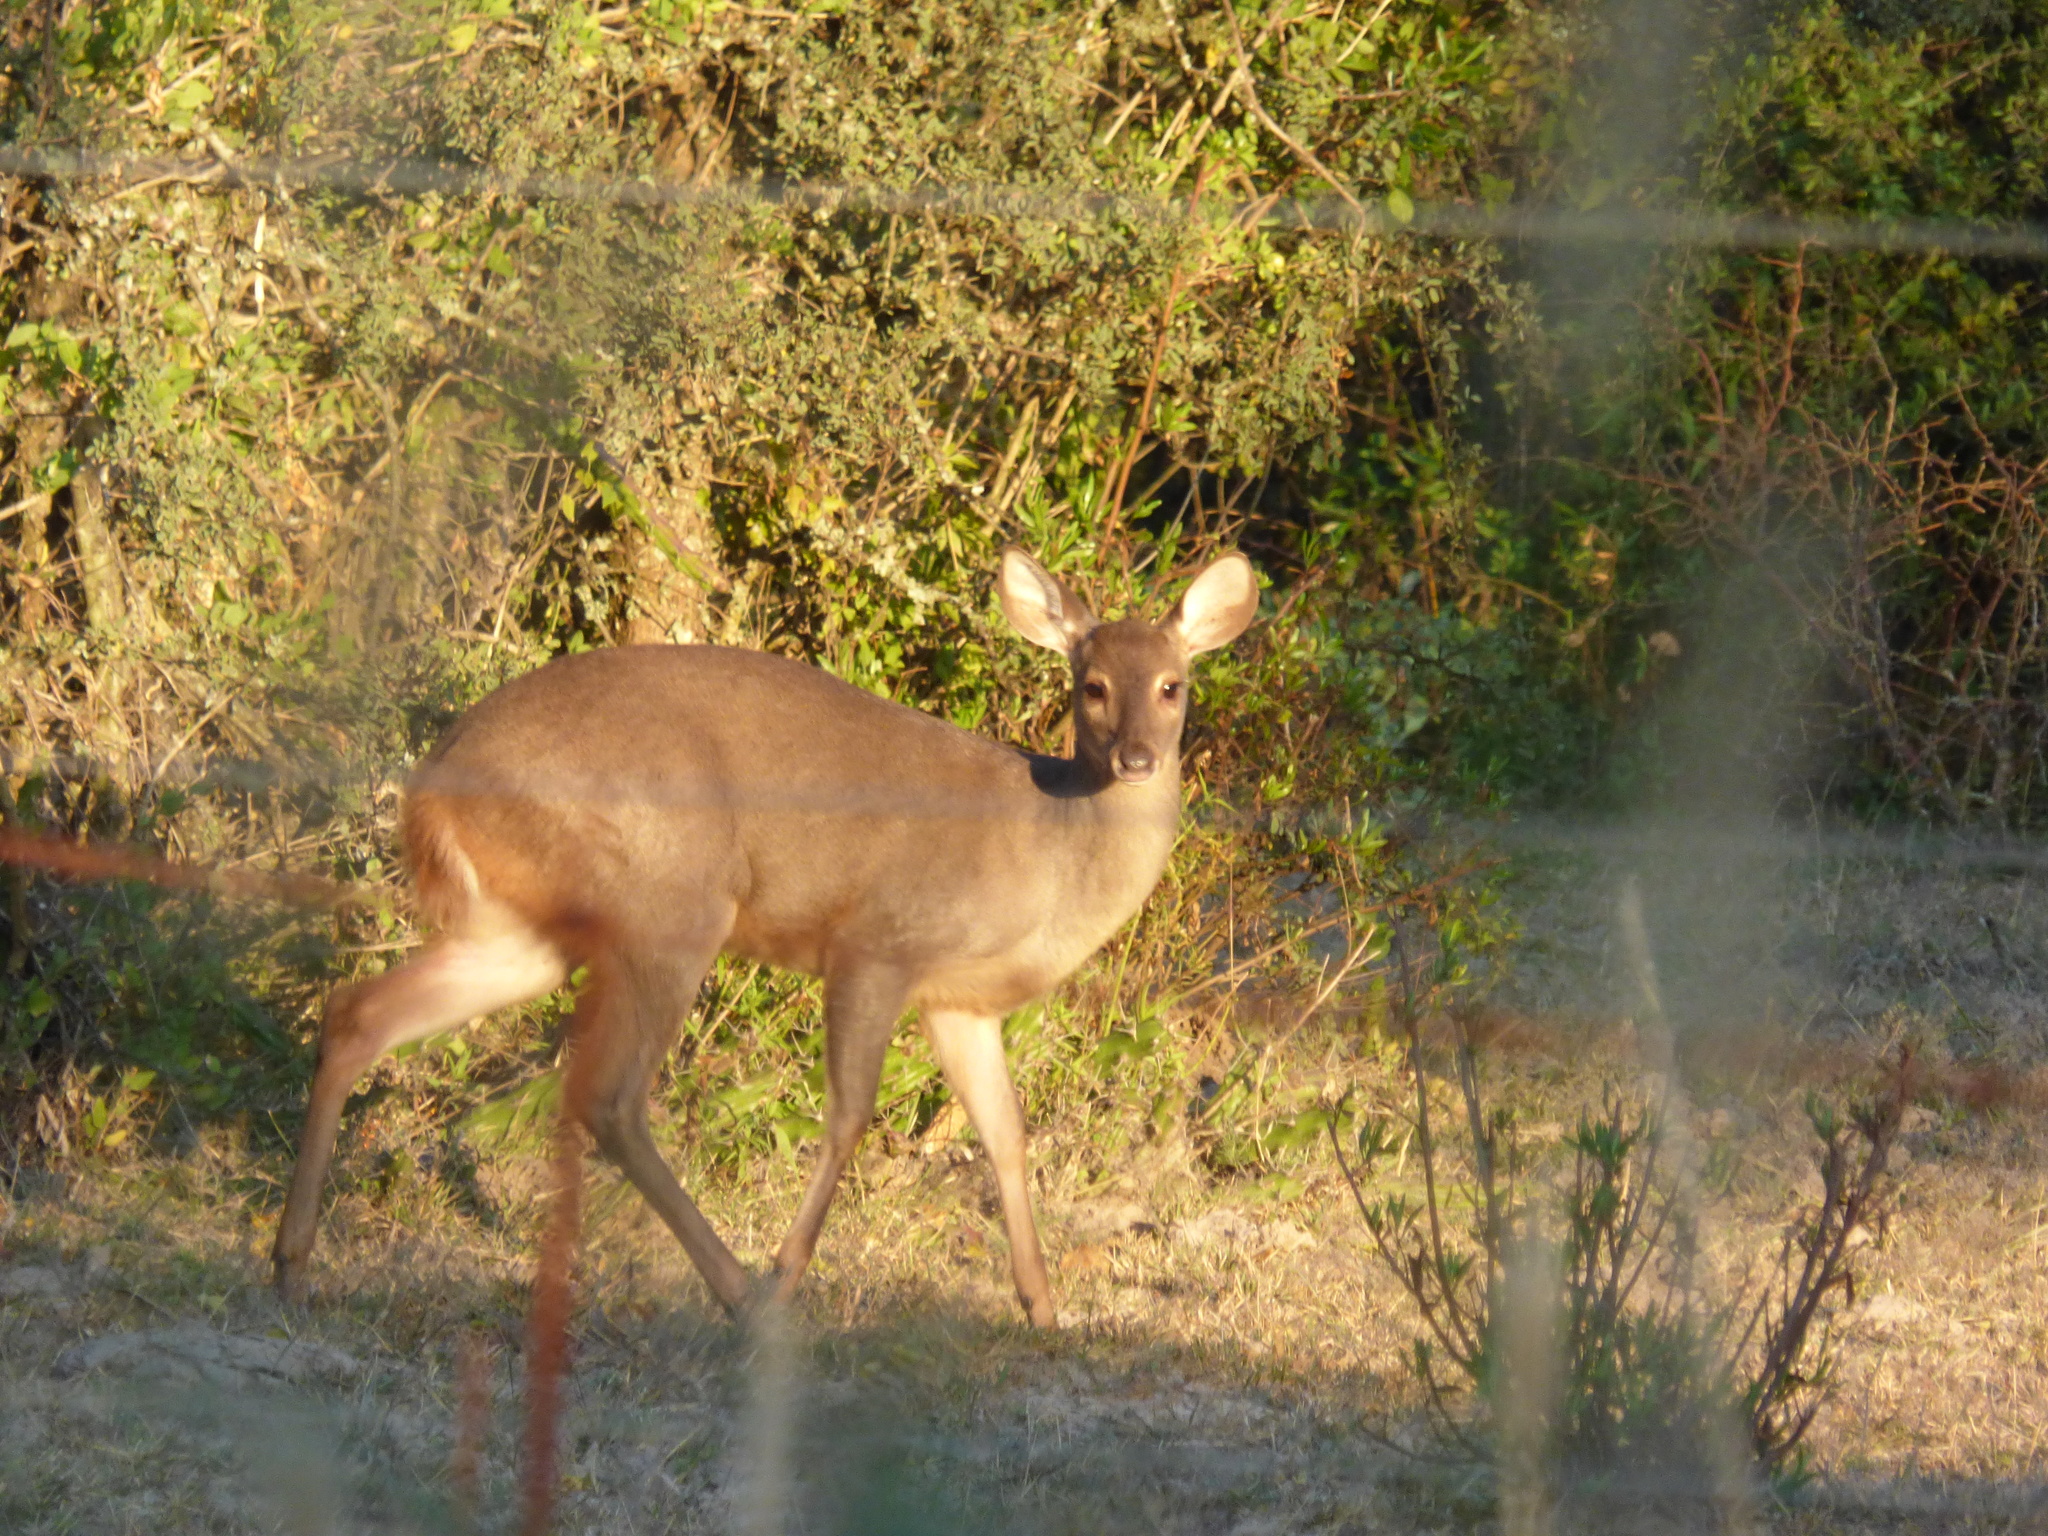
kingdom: Animalia
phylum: Chordata
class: Mammalia
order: Artiodactyla
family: Cervidae
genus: Mazama
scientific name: Mazama gouazoubira
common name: Gray brocket
